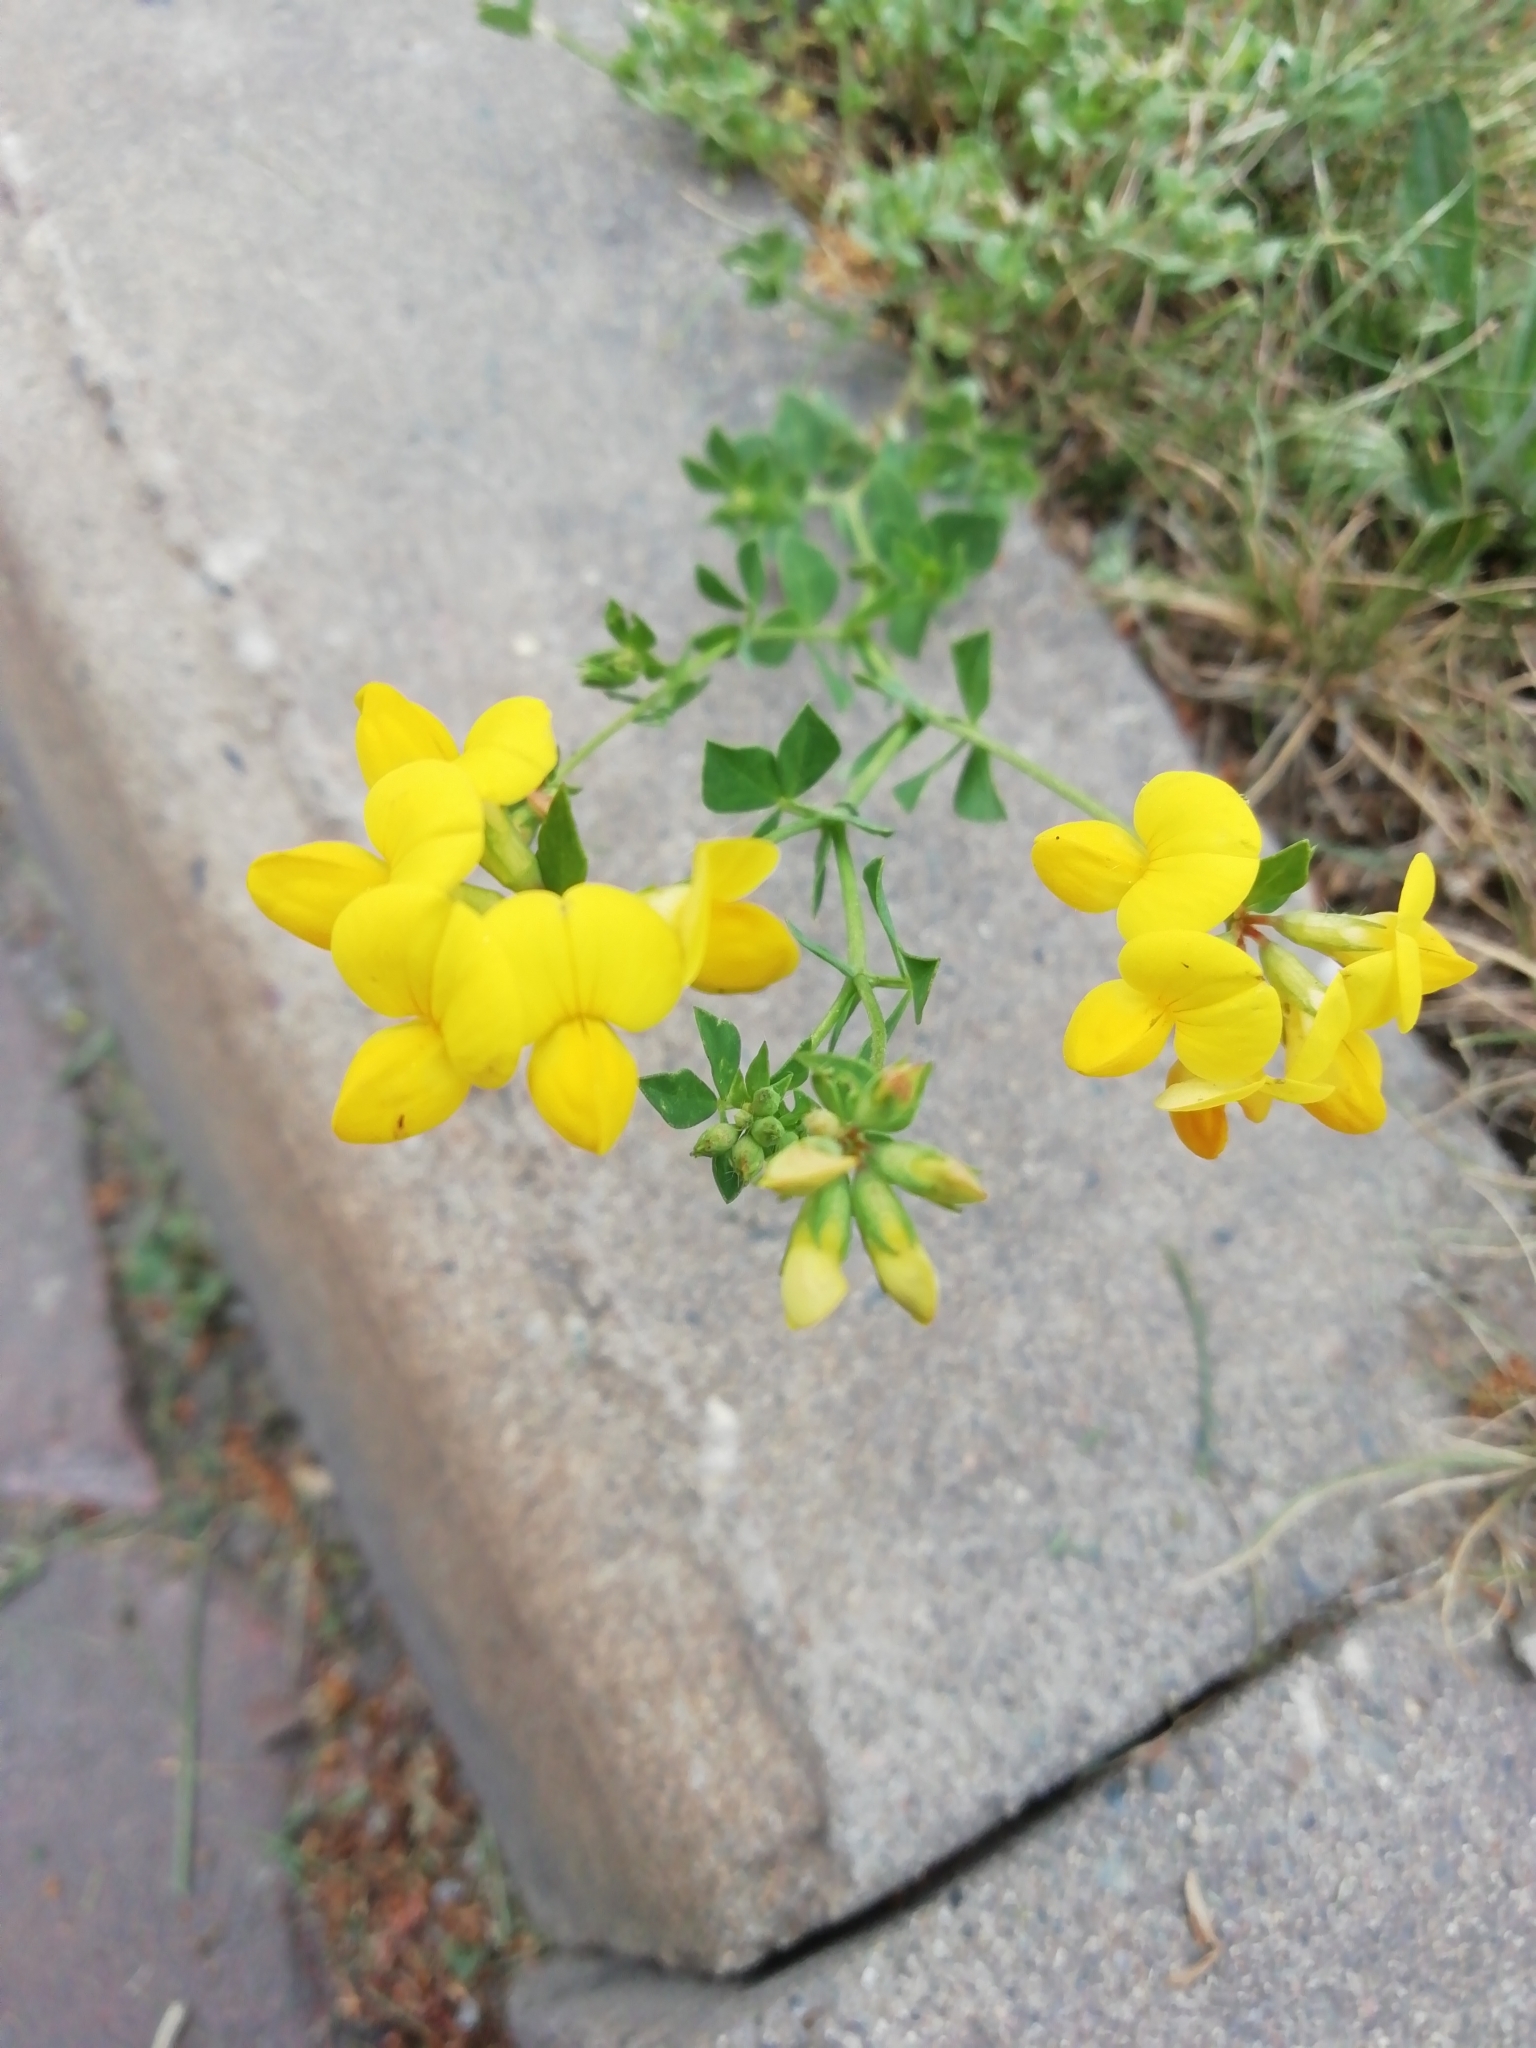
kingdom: Plantae
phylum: Tracheophyta
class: Magnoliopsida
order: Fabales
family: Fabaceae
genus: Lotus
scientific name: Lotus corniculatus
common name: Common bird's-foot-trefoil
